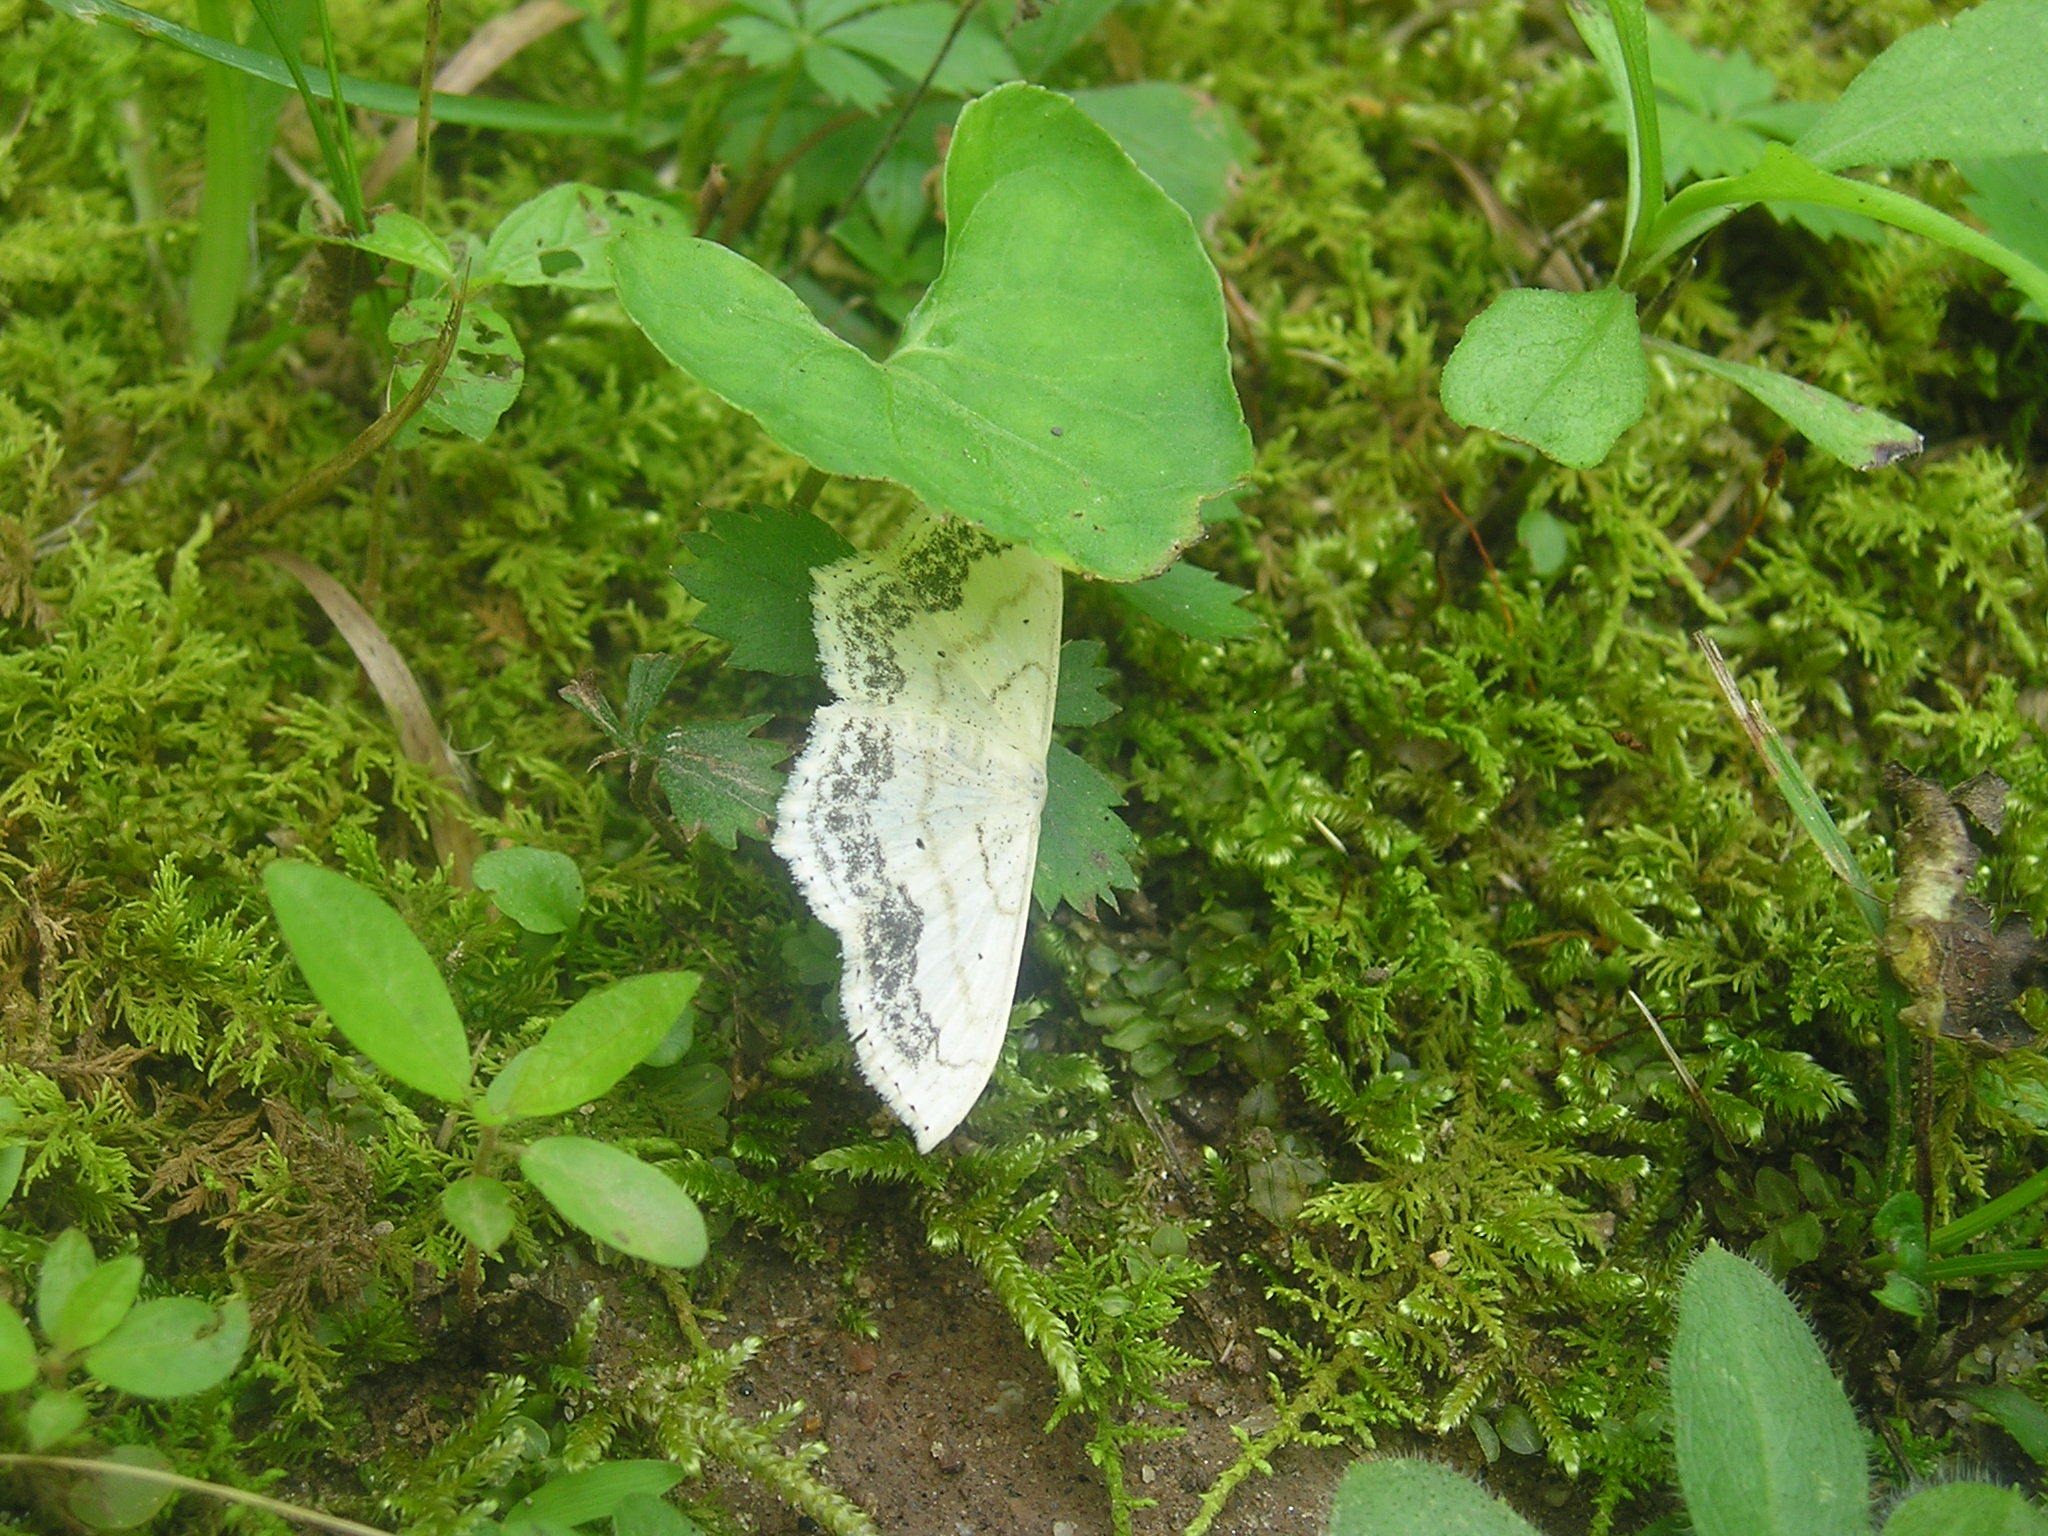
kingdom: Animalia
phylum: Arthropoda
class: Insecta
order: Lepidoptera
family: Geometridae
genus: Scopula
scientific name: Scopula limboundata
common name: Large lace border
